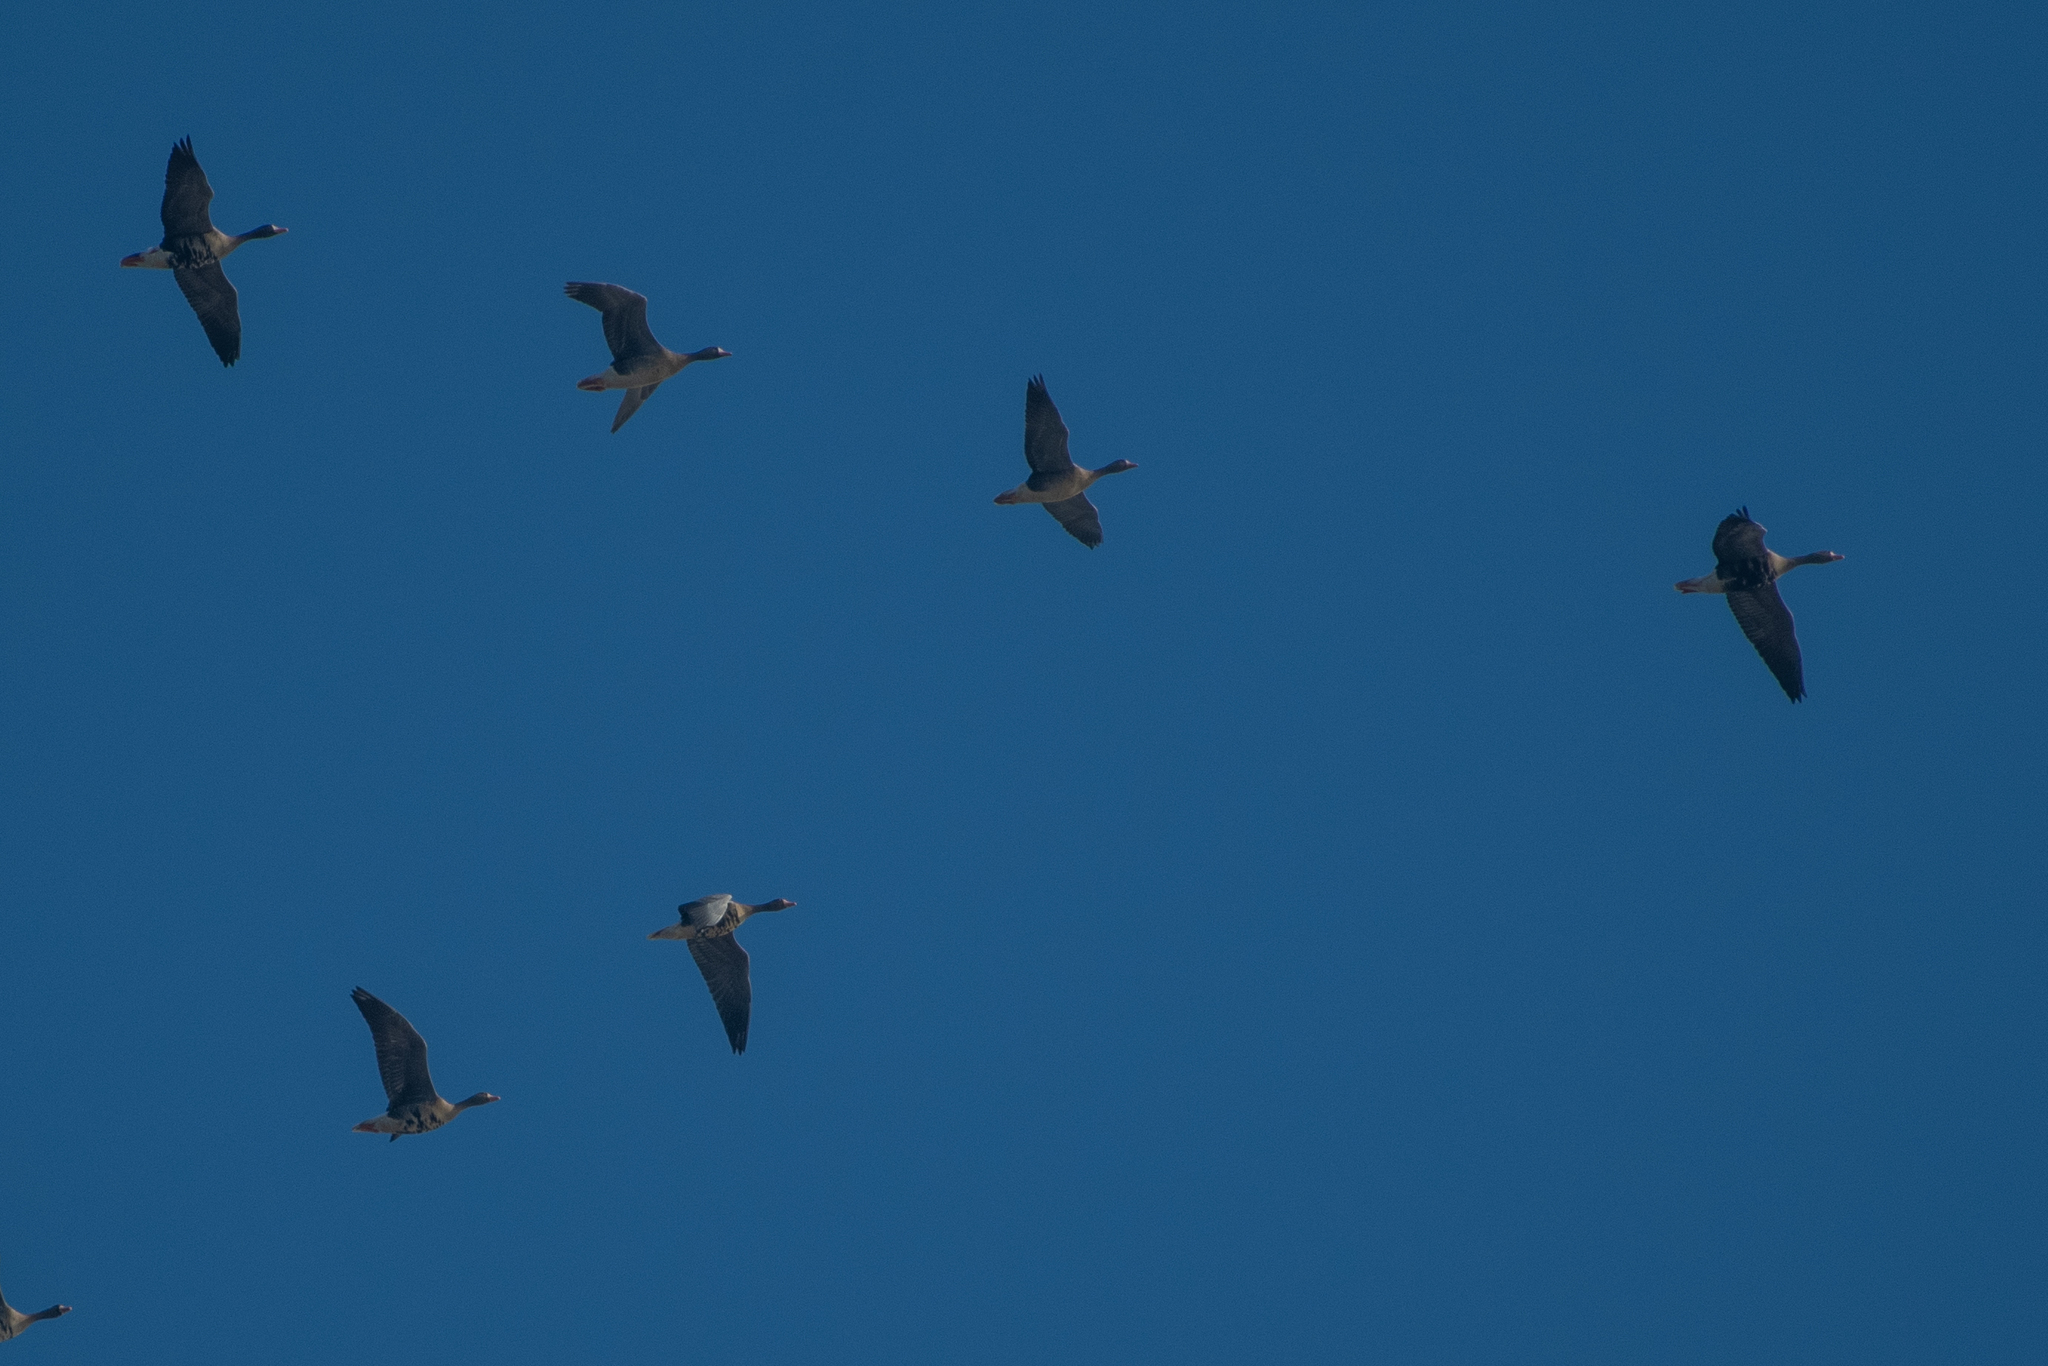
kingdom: Animalia
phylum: Chordata
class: Aves
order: Anseriformes
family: Anatidae
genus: Anser
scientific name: Anser albifrons
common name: Greater white-fronted goose
